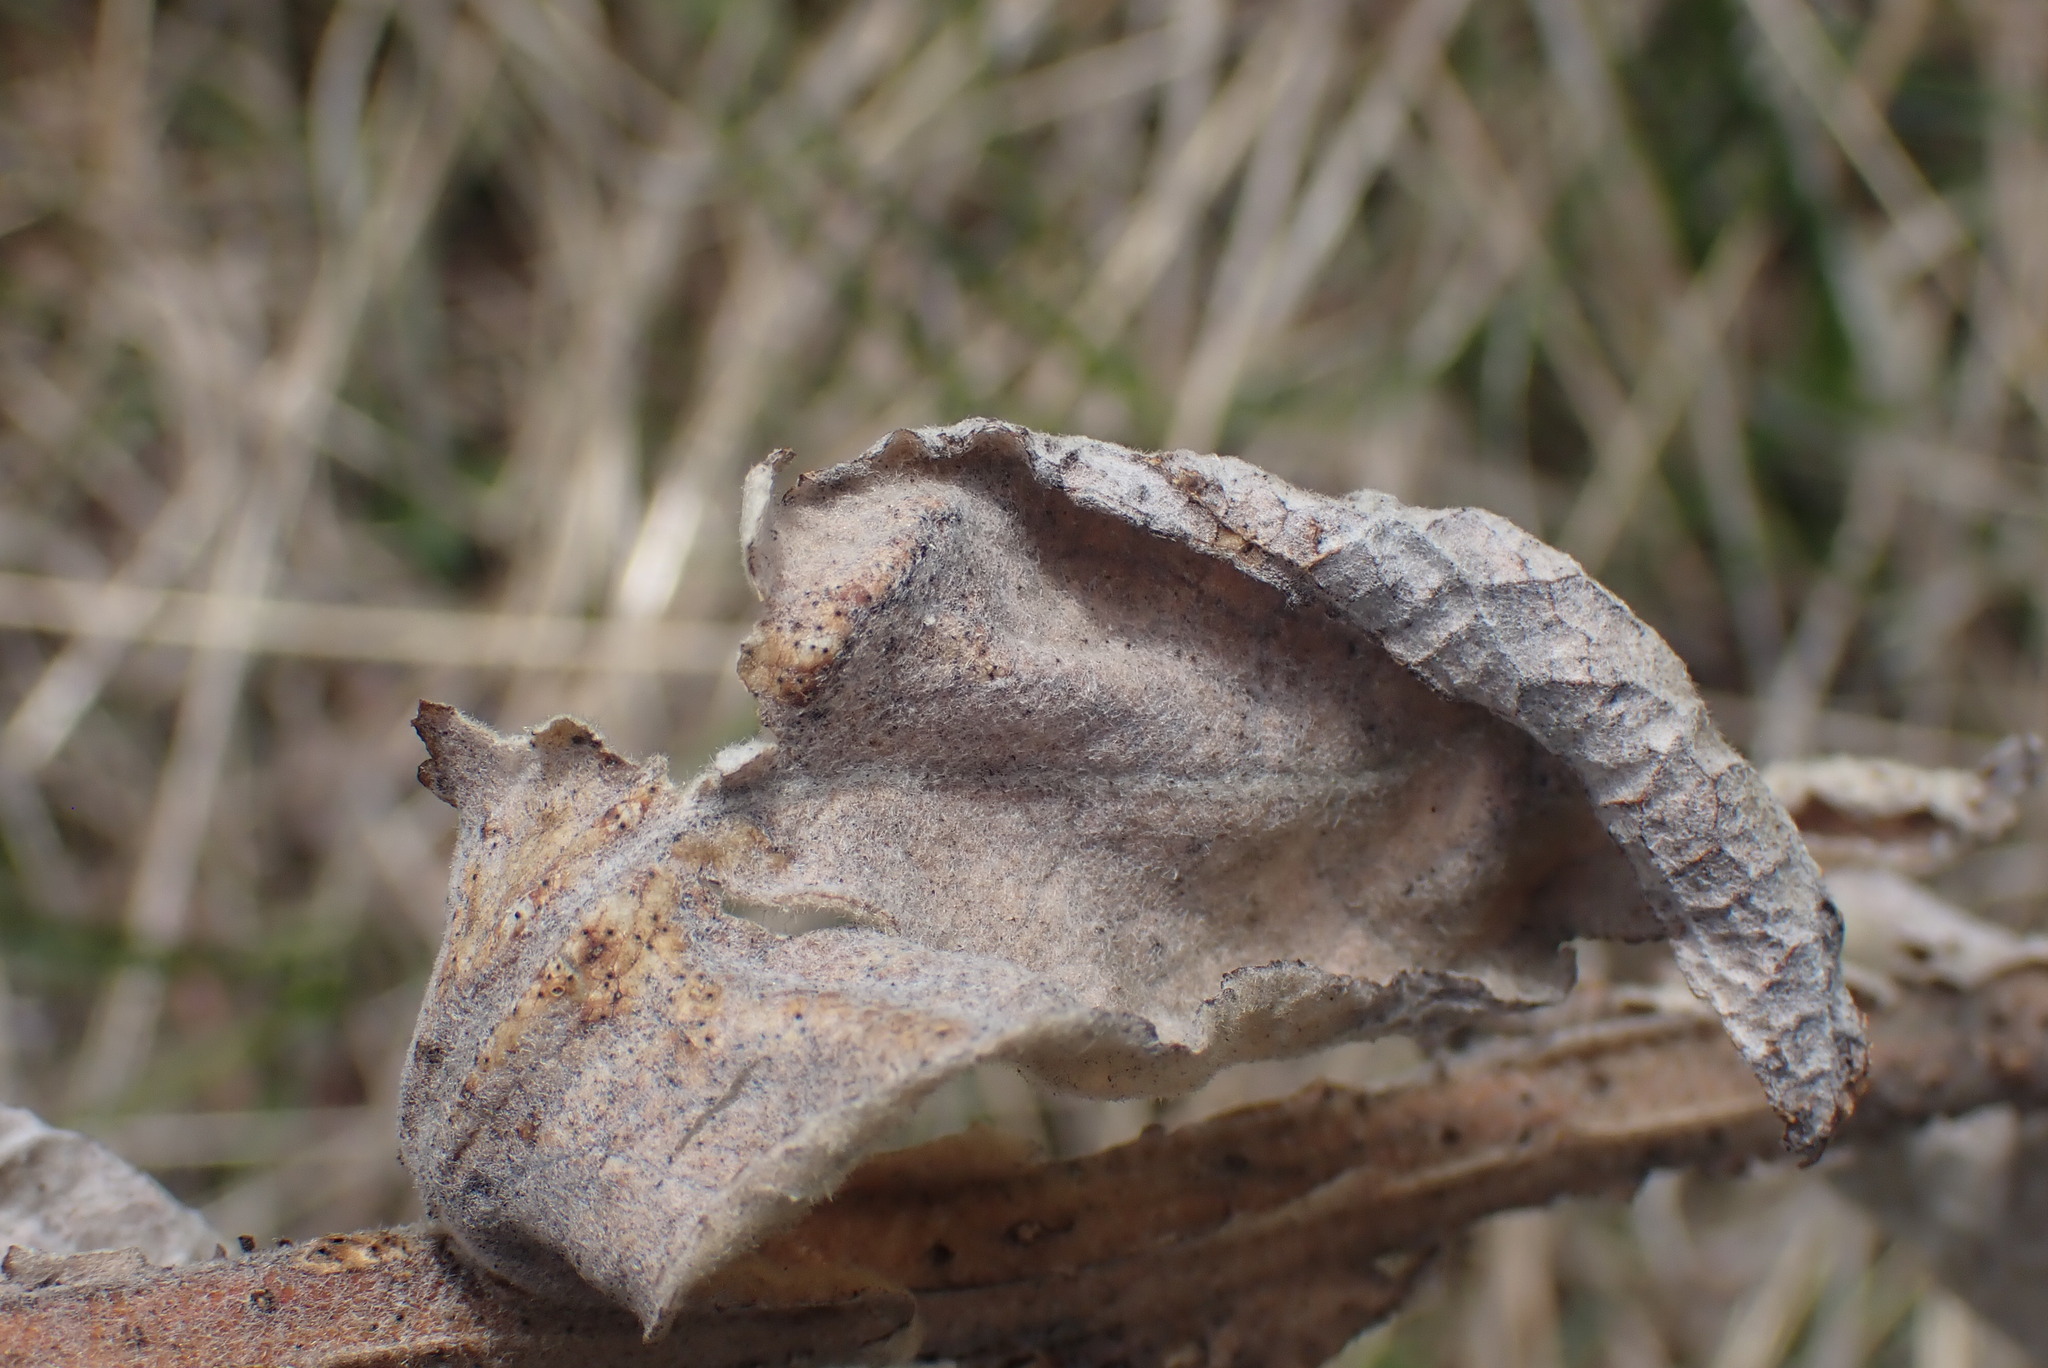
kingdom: Plantae
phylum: Tracheophyta
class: Magnoliopsida
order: Lamiales
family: Scrophulariaceae
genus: Verbascum
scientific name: Verbascum thapsus
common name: Common mullein
